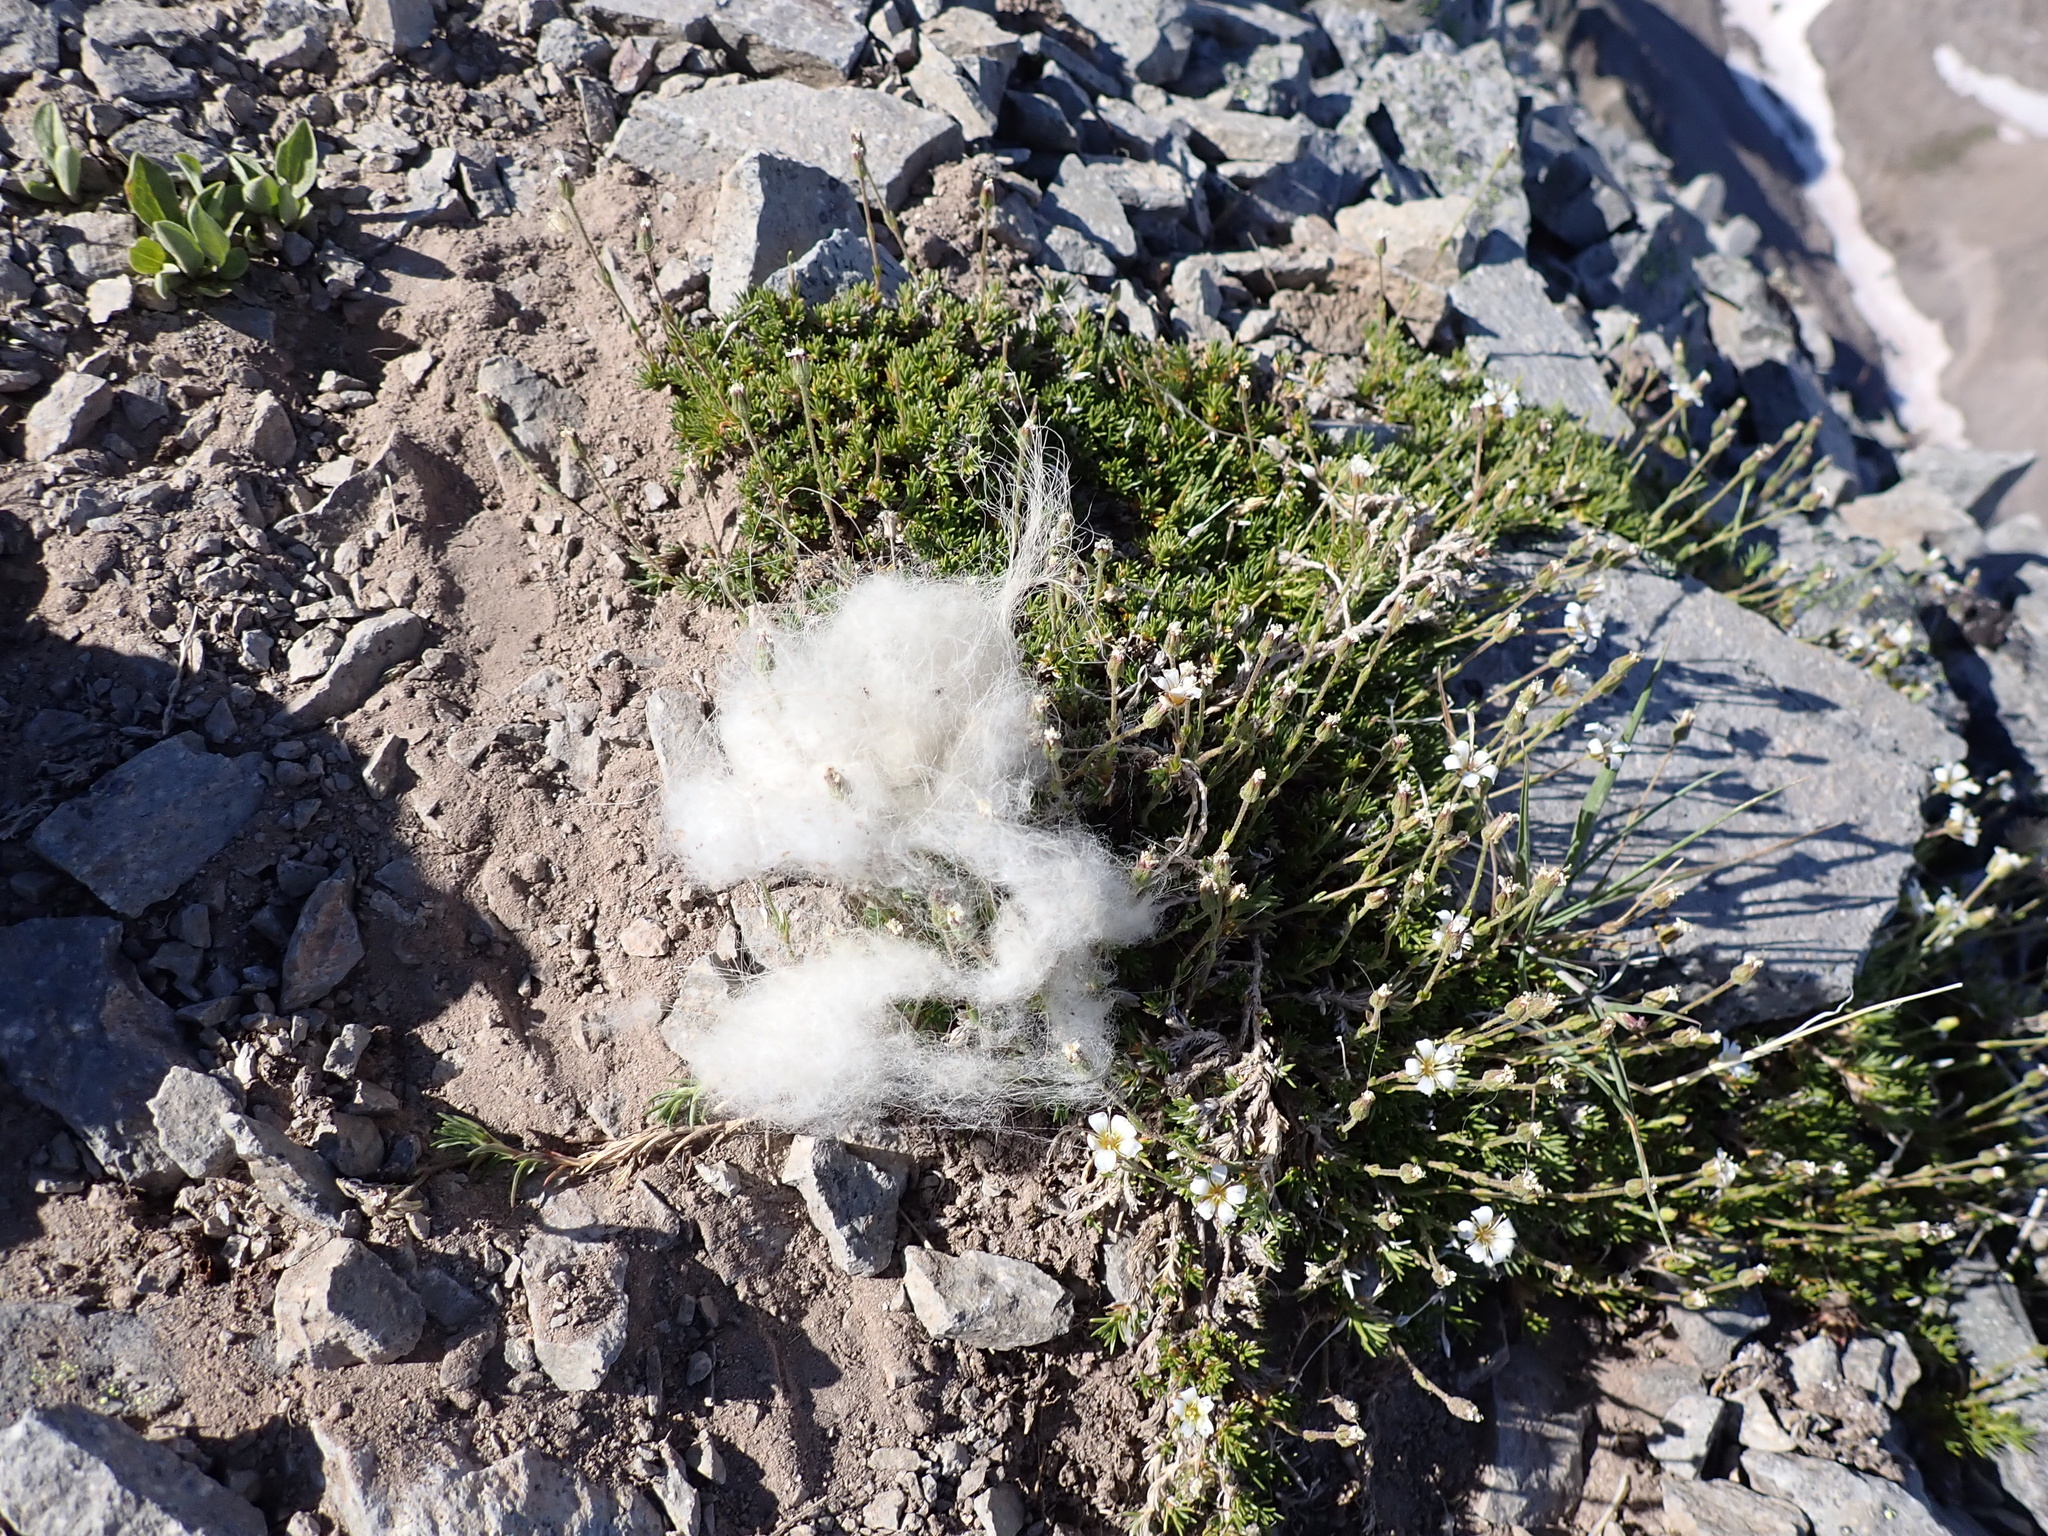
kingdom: Animalia
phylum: Chordata
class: Mammalia
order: Artiodactyla
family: Bovidae
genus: Oreamnos
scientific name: Oreamnos americanus
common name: Mountain goat
